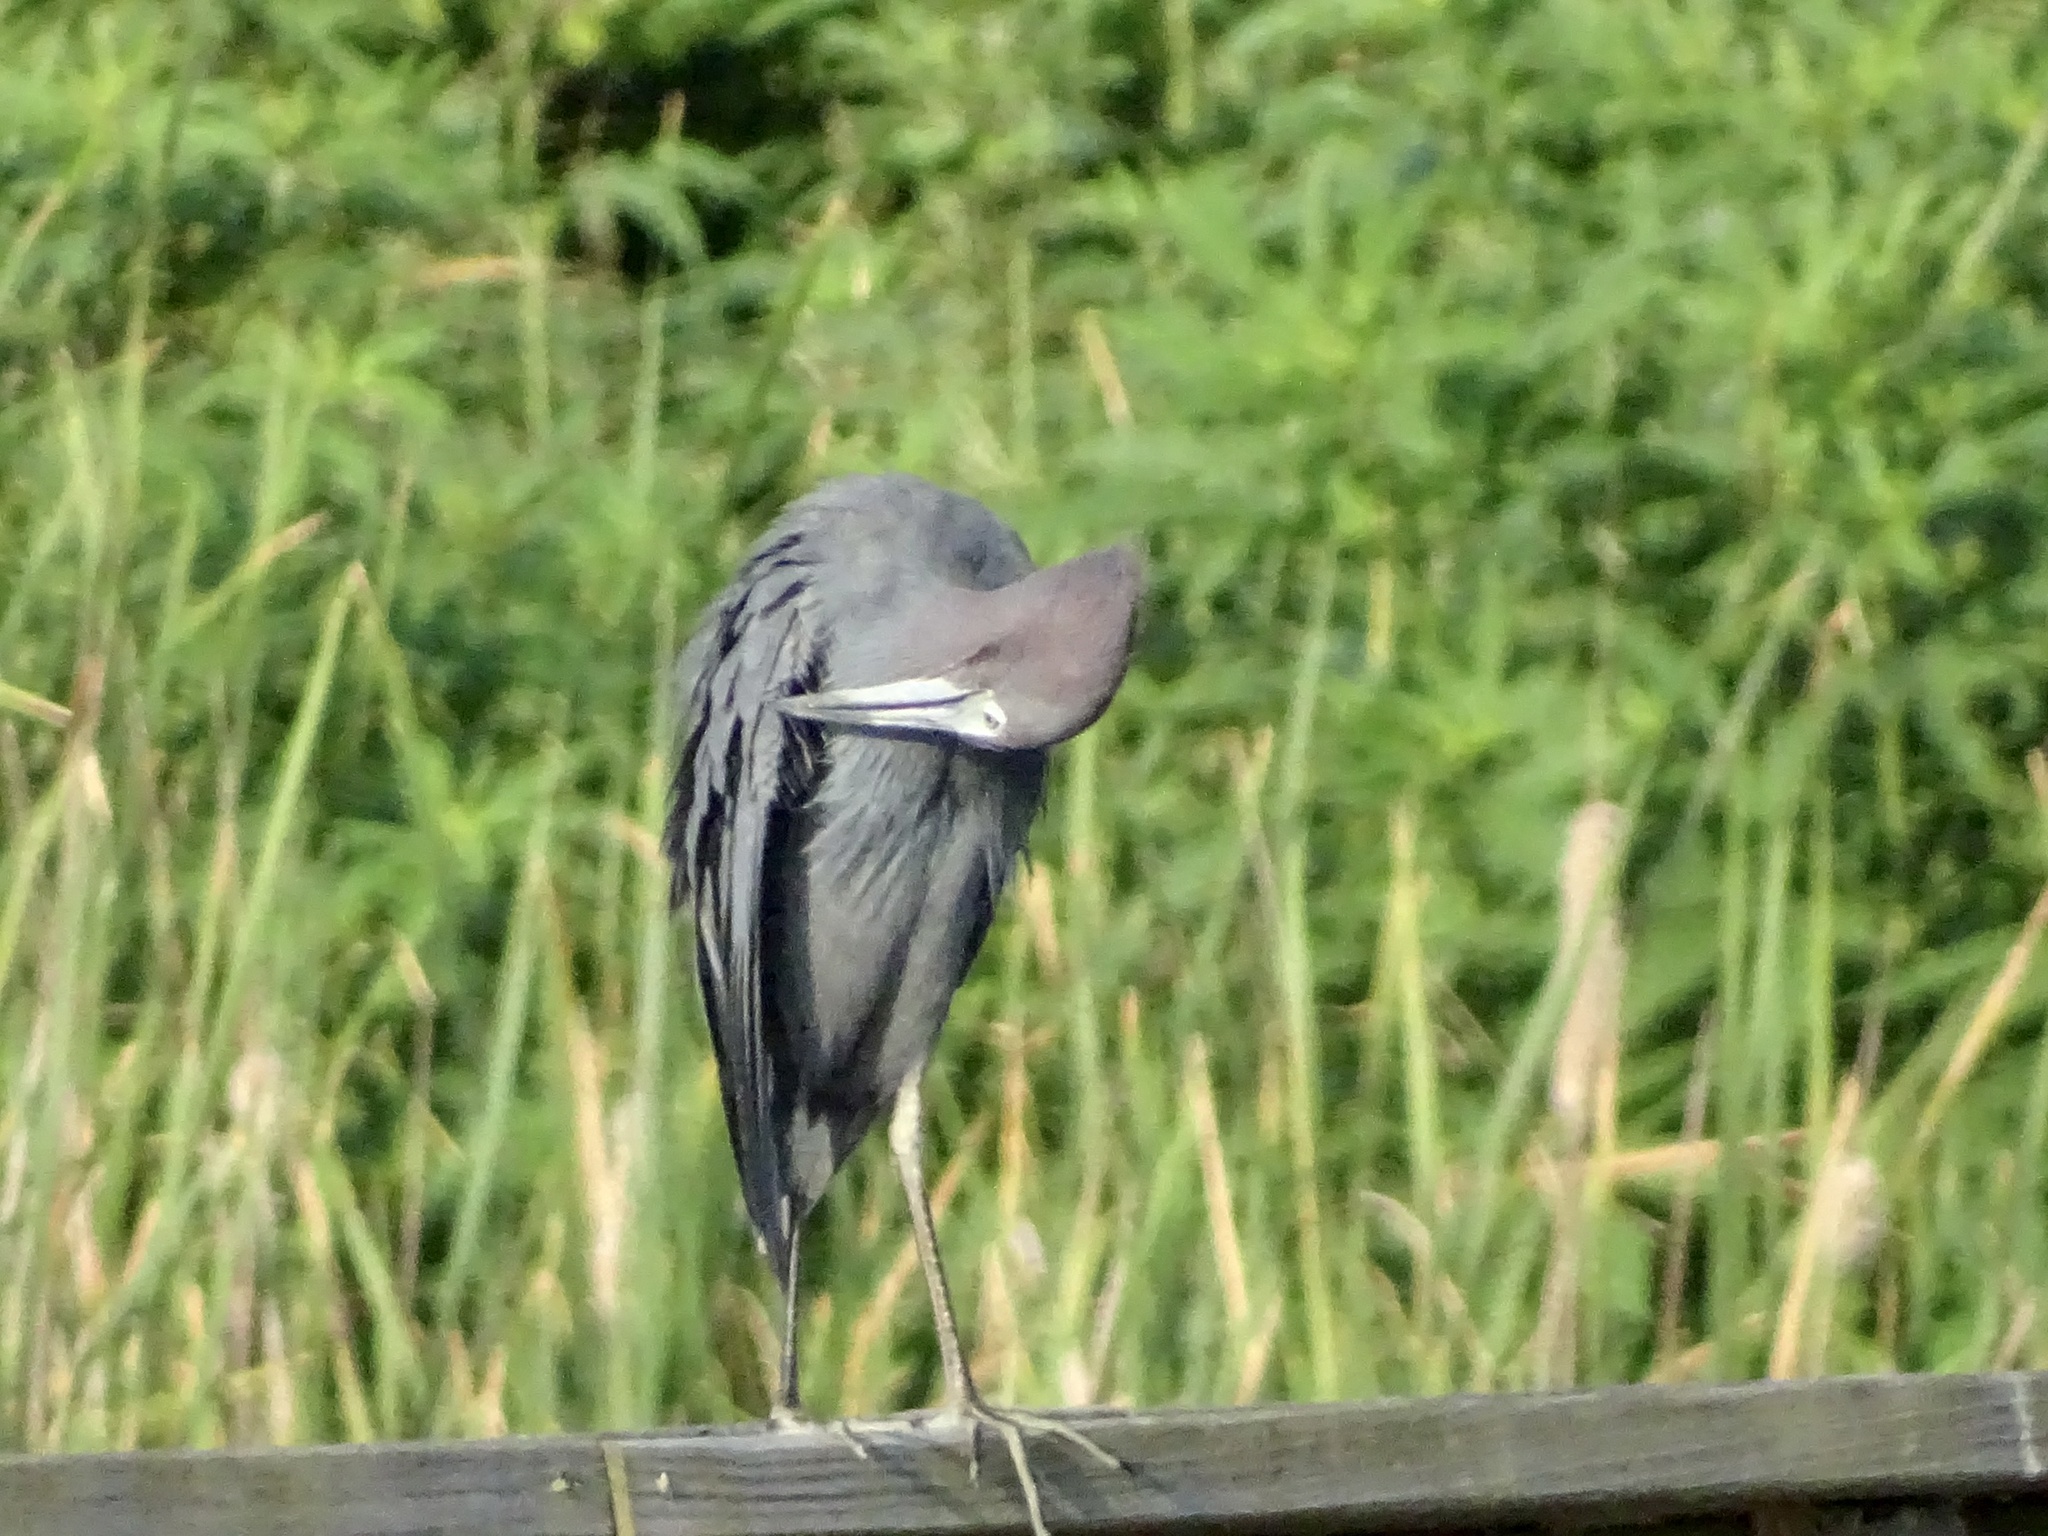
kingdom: Animalia
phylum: Chordata
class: Aves
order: Pelecaniformes
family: Ardeidae
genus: Egretta
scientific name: Egretta caerulea
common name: Little blue heron
